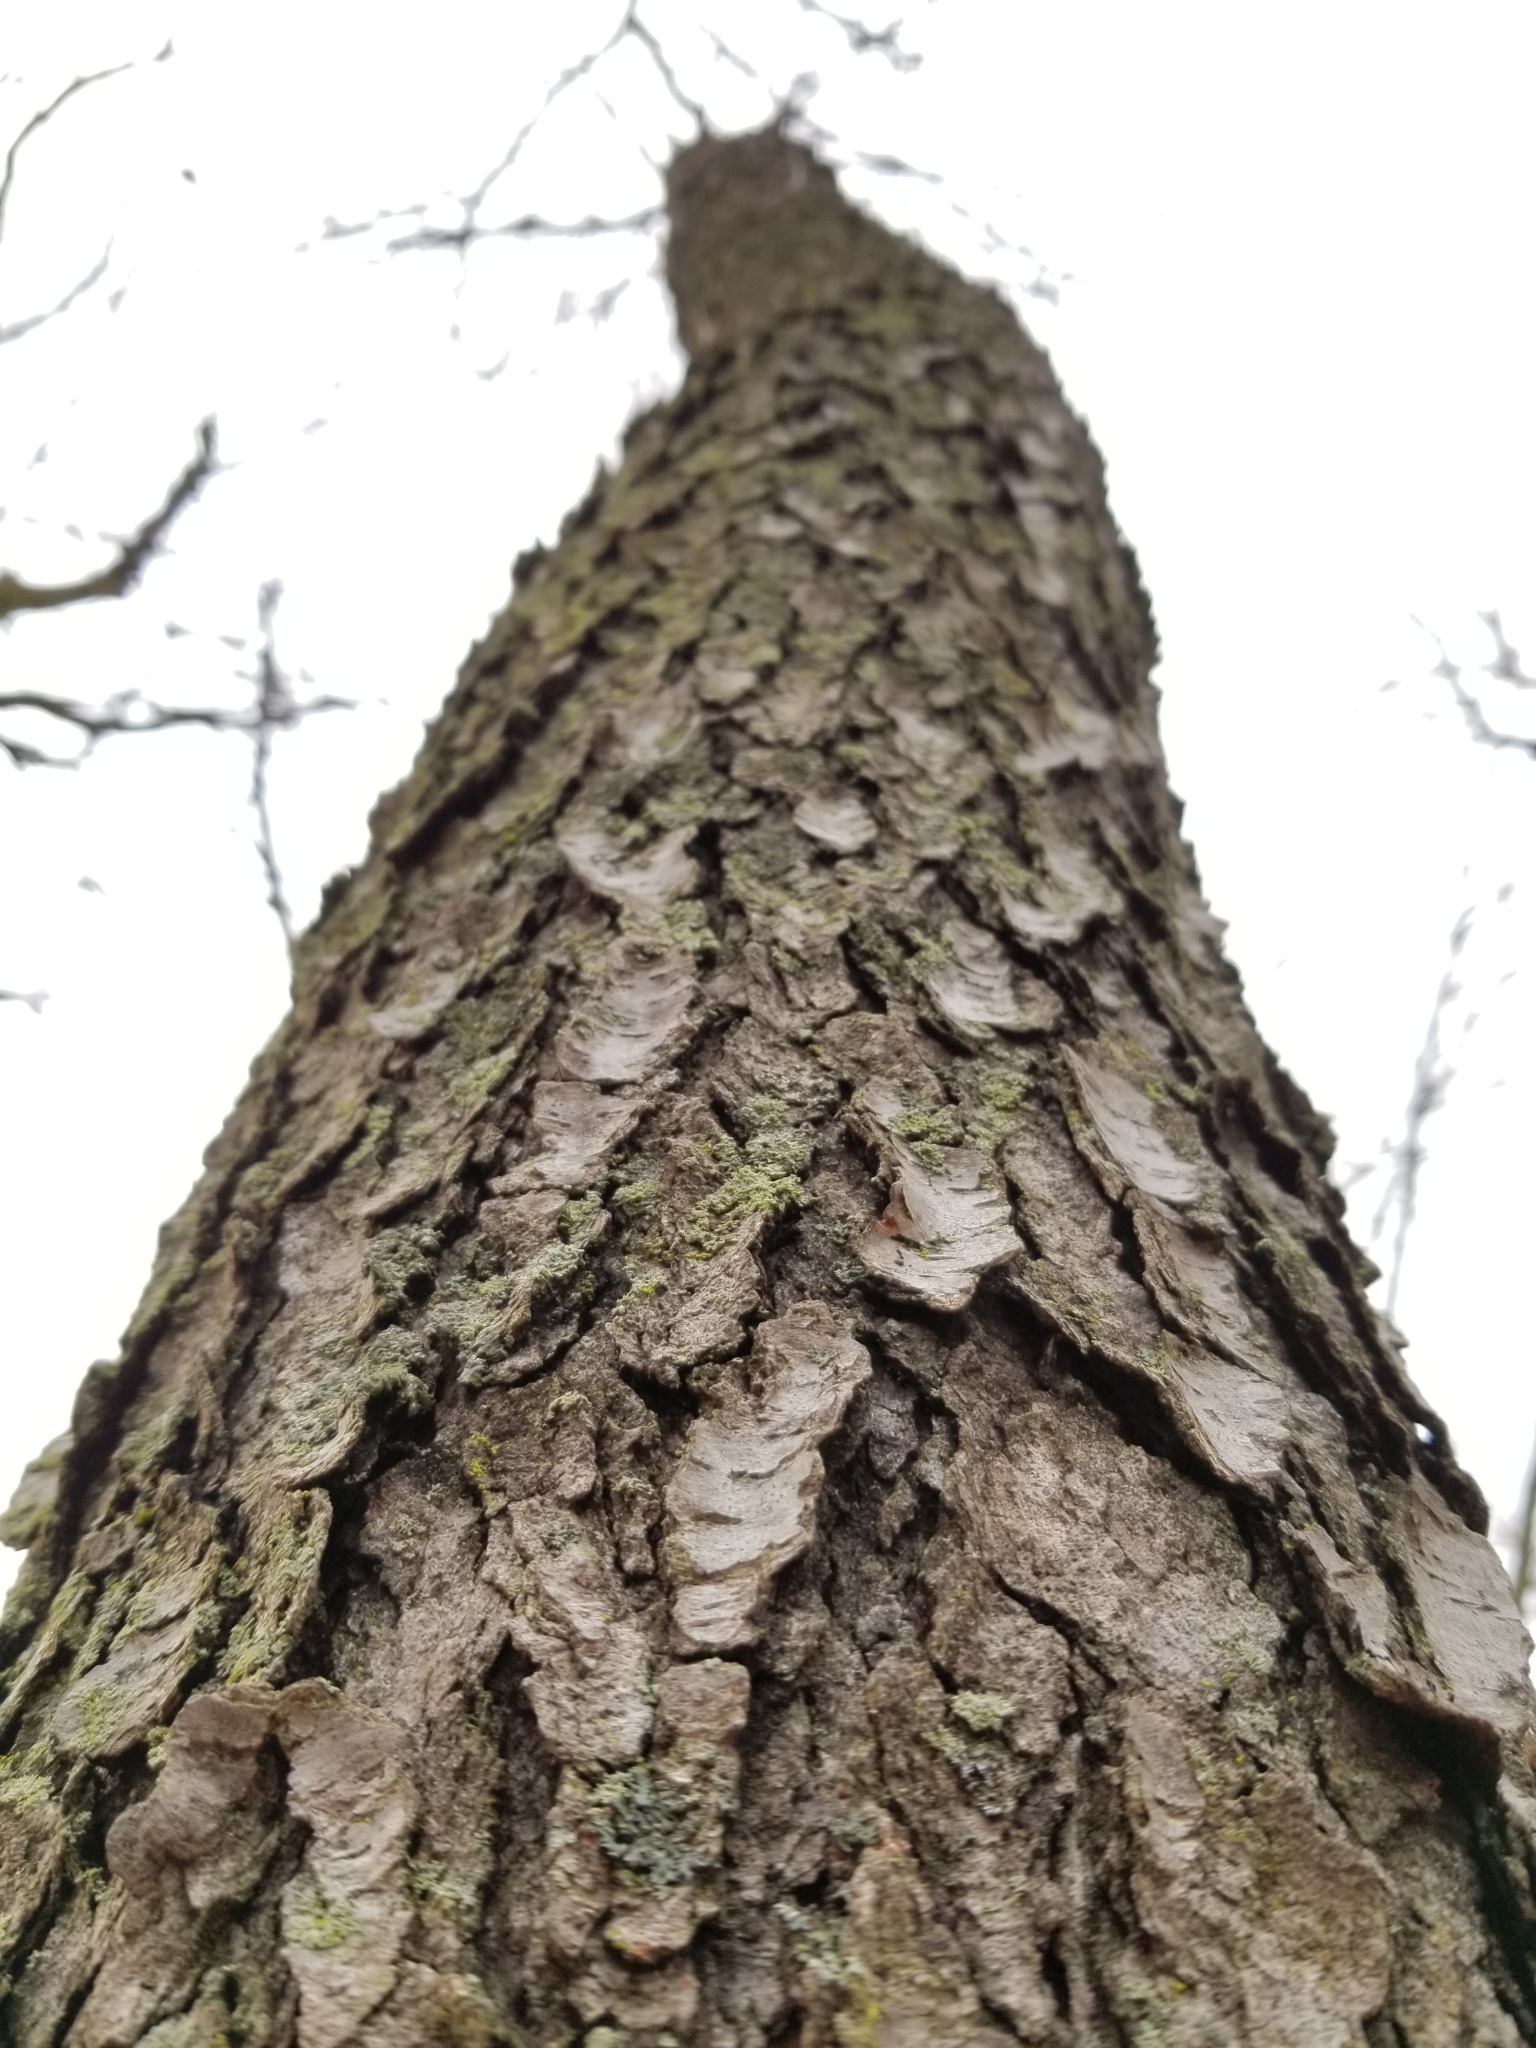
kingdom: Plantae
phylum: Tracheophyta
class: Magnoliopsida
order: Rosales
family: Rosaceae
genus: Prunus
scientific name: Prunus serotina
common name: Black cherry
